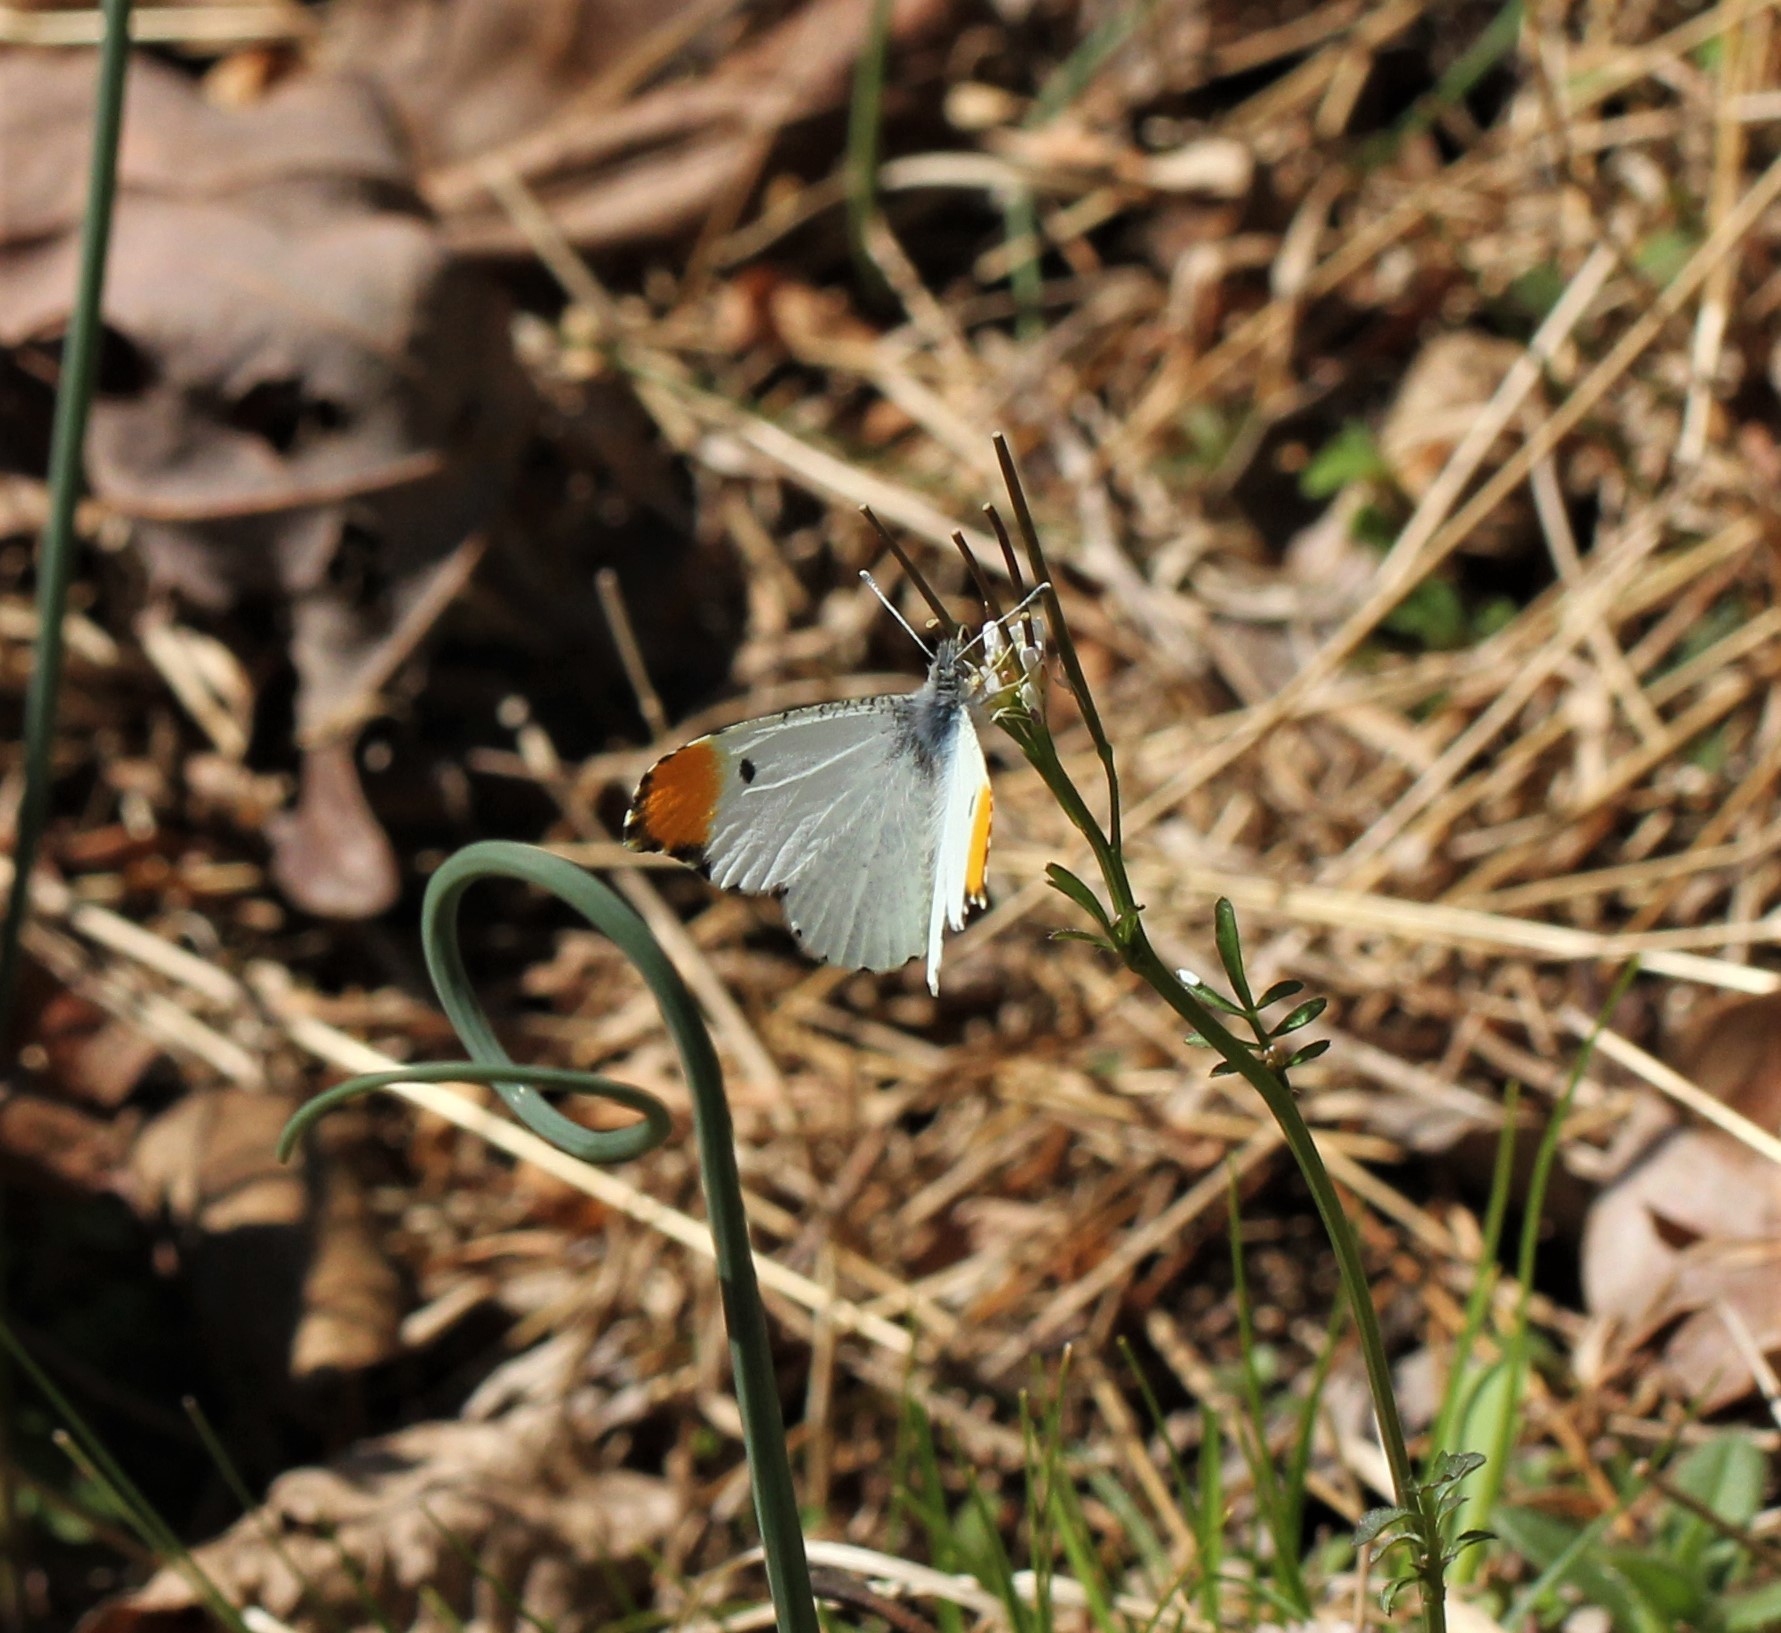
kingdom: Animalia
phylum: Arthropoda
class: Insecta
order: Lepidoptera
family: Pieridae
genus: Anthocharis
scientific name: Anthocharis midea
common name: Falcate orangetip
